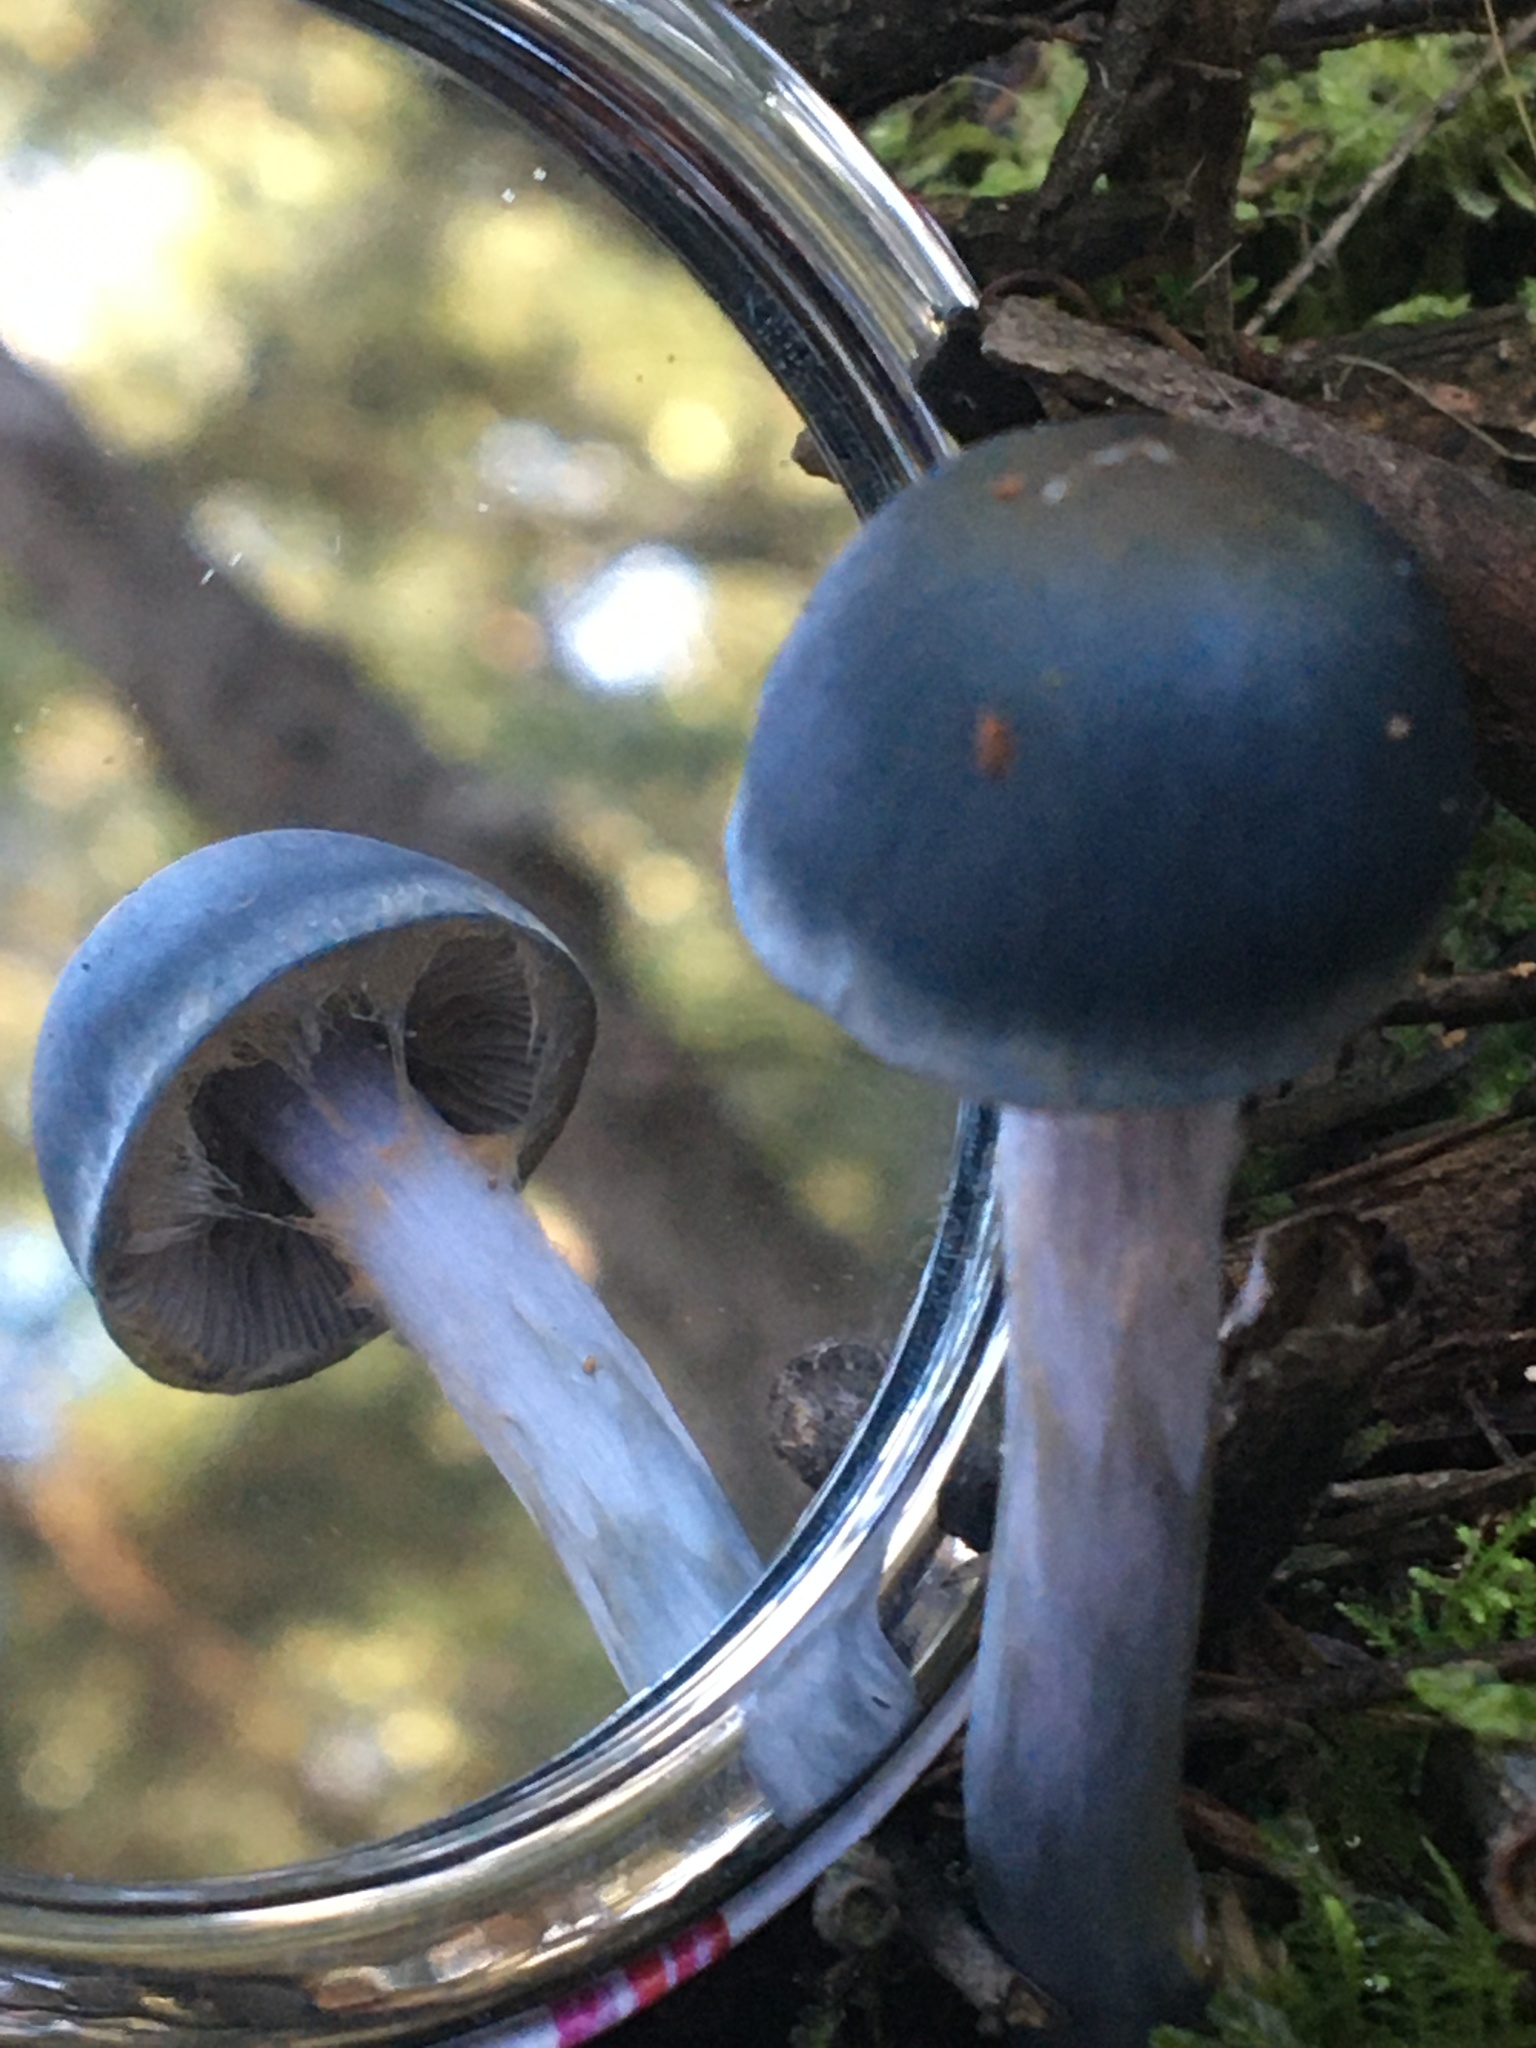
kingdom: Fungi
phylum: Basidiomycota
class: Agaricomycetes
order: Agaricales
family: Cortinariaceae
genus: Cortinarius
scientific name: Cortinarius rotundisporus
